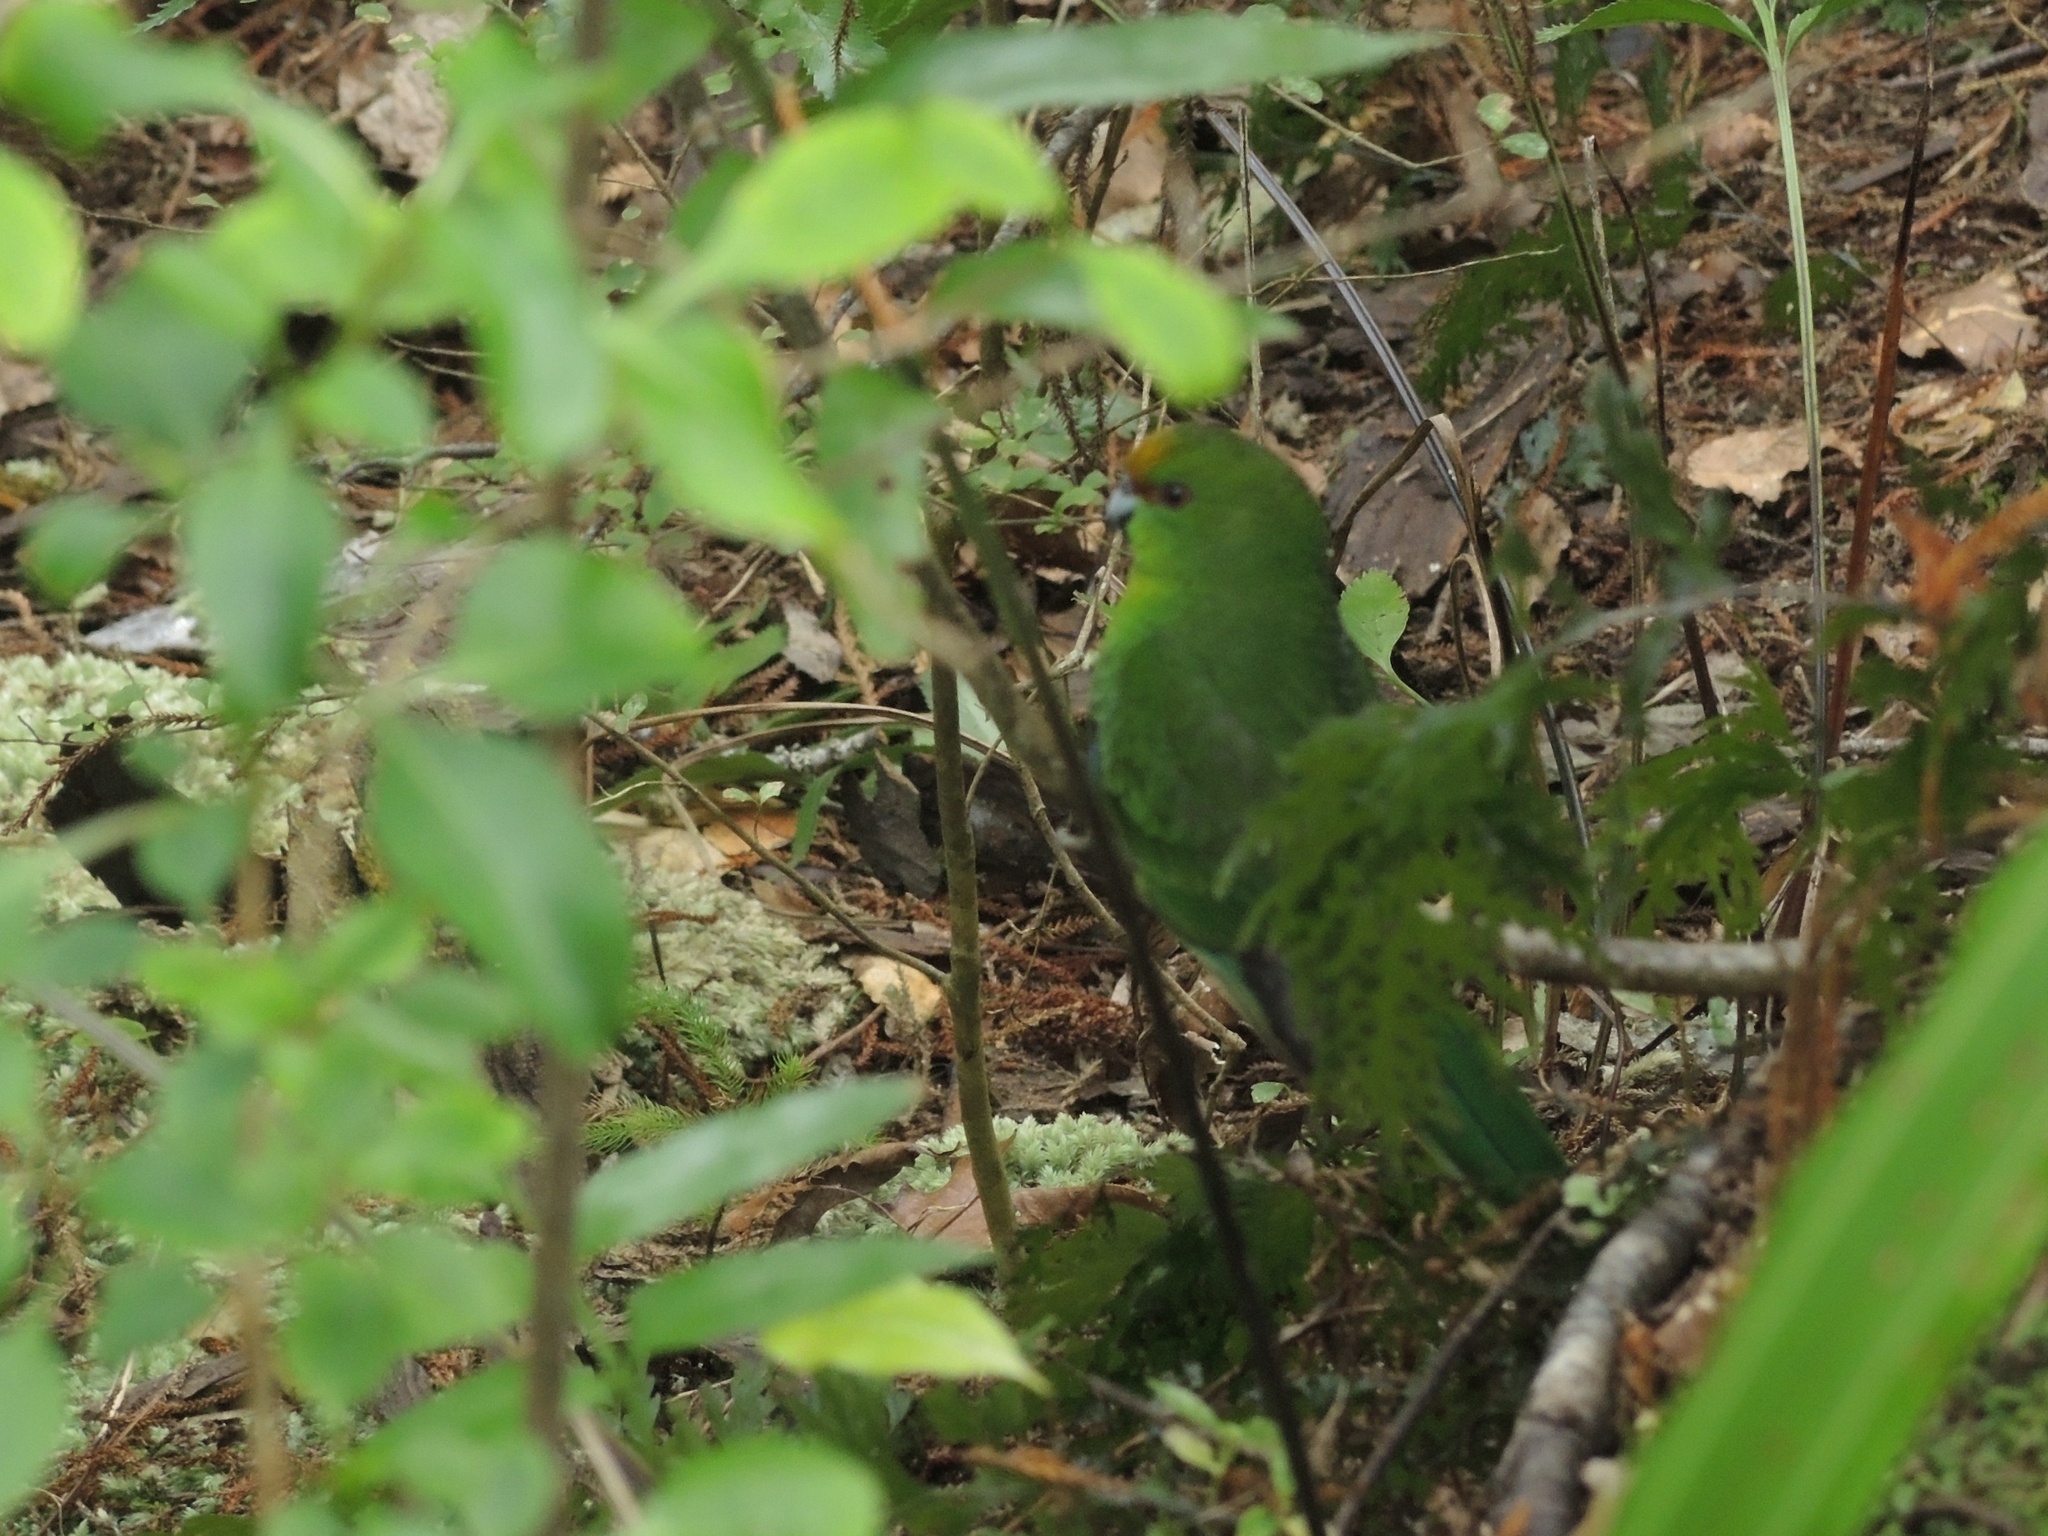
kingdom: Animalia
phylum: Chordata
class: Aves
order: Psittaciformes
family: Psittacidae
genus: Cyanoramphus
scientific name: Cyanoramphus auriceps
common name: Yellow-crowned parakeet
